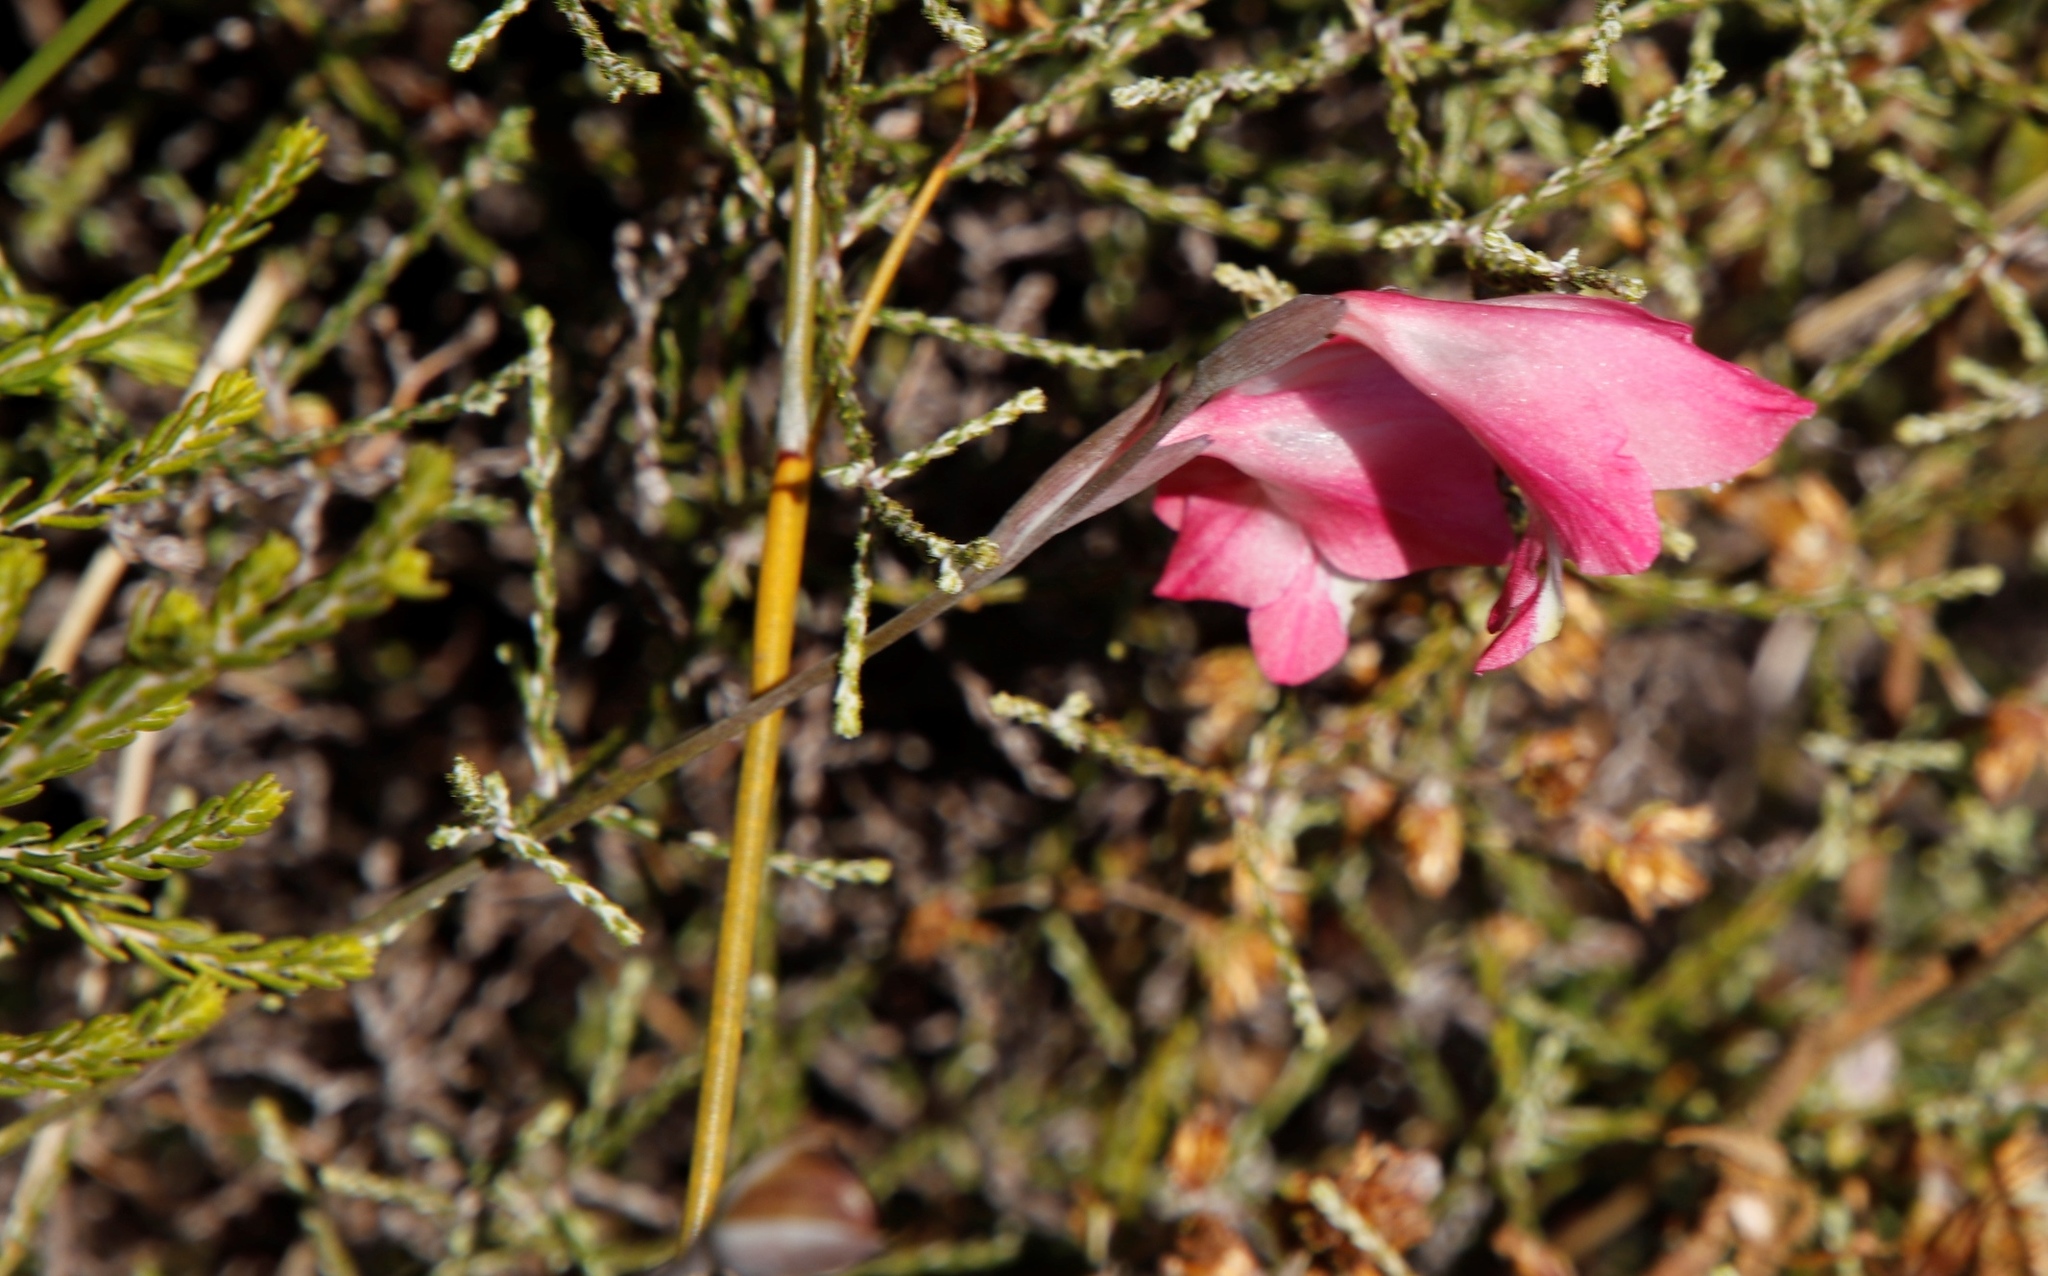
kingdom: Plantae
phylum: Tracheophyta
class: Liliopsida
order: Asparagales
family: Iridaceae
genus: Gladiolus
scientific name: Gladiolus brevifolius
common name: March pypie
